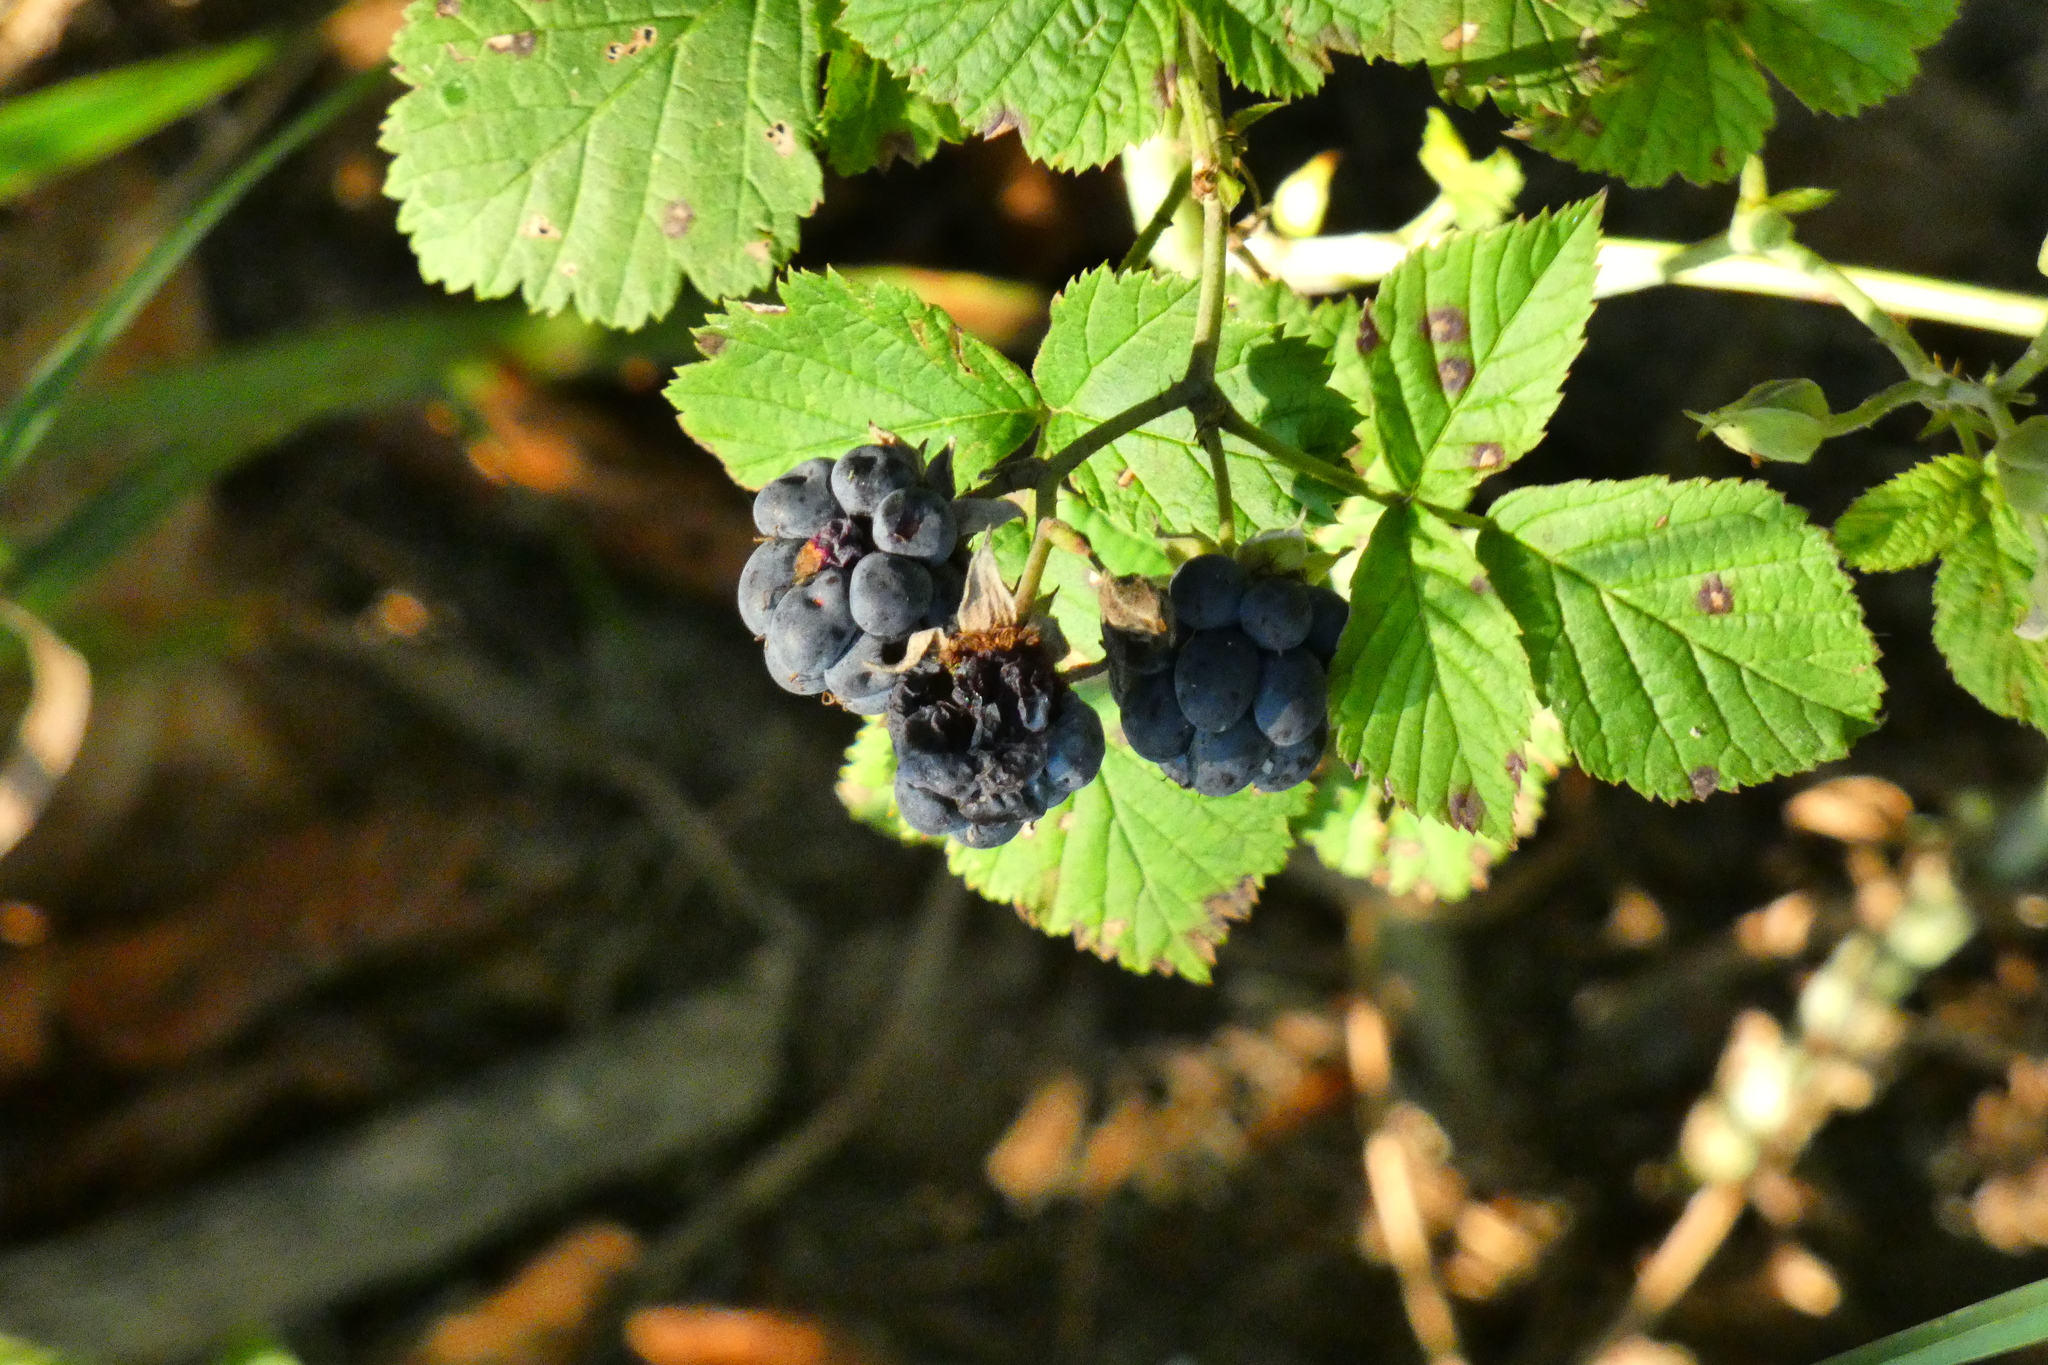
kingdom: Plantae
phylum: Tracheophyta
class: Magnoliopsida
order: Rosales
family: Rosaceae
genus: Rubus
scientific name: Rubus caesius
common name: Dewberry
